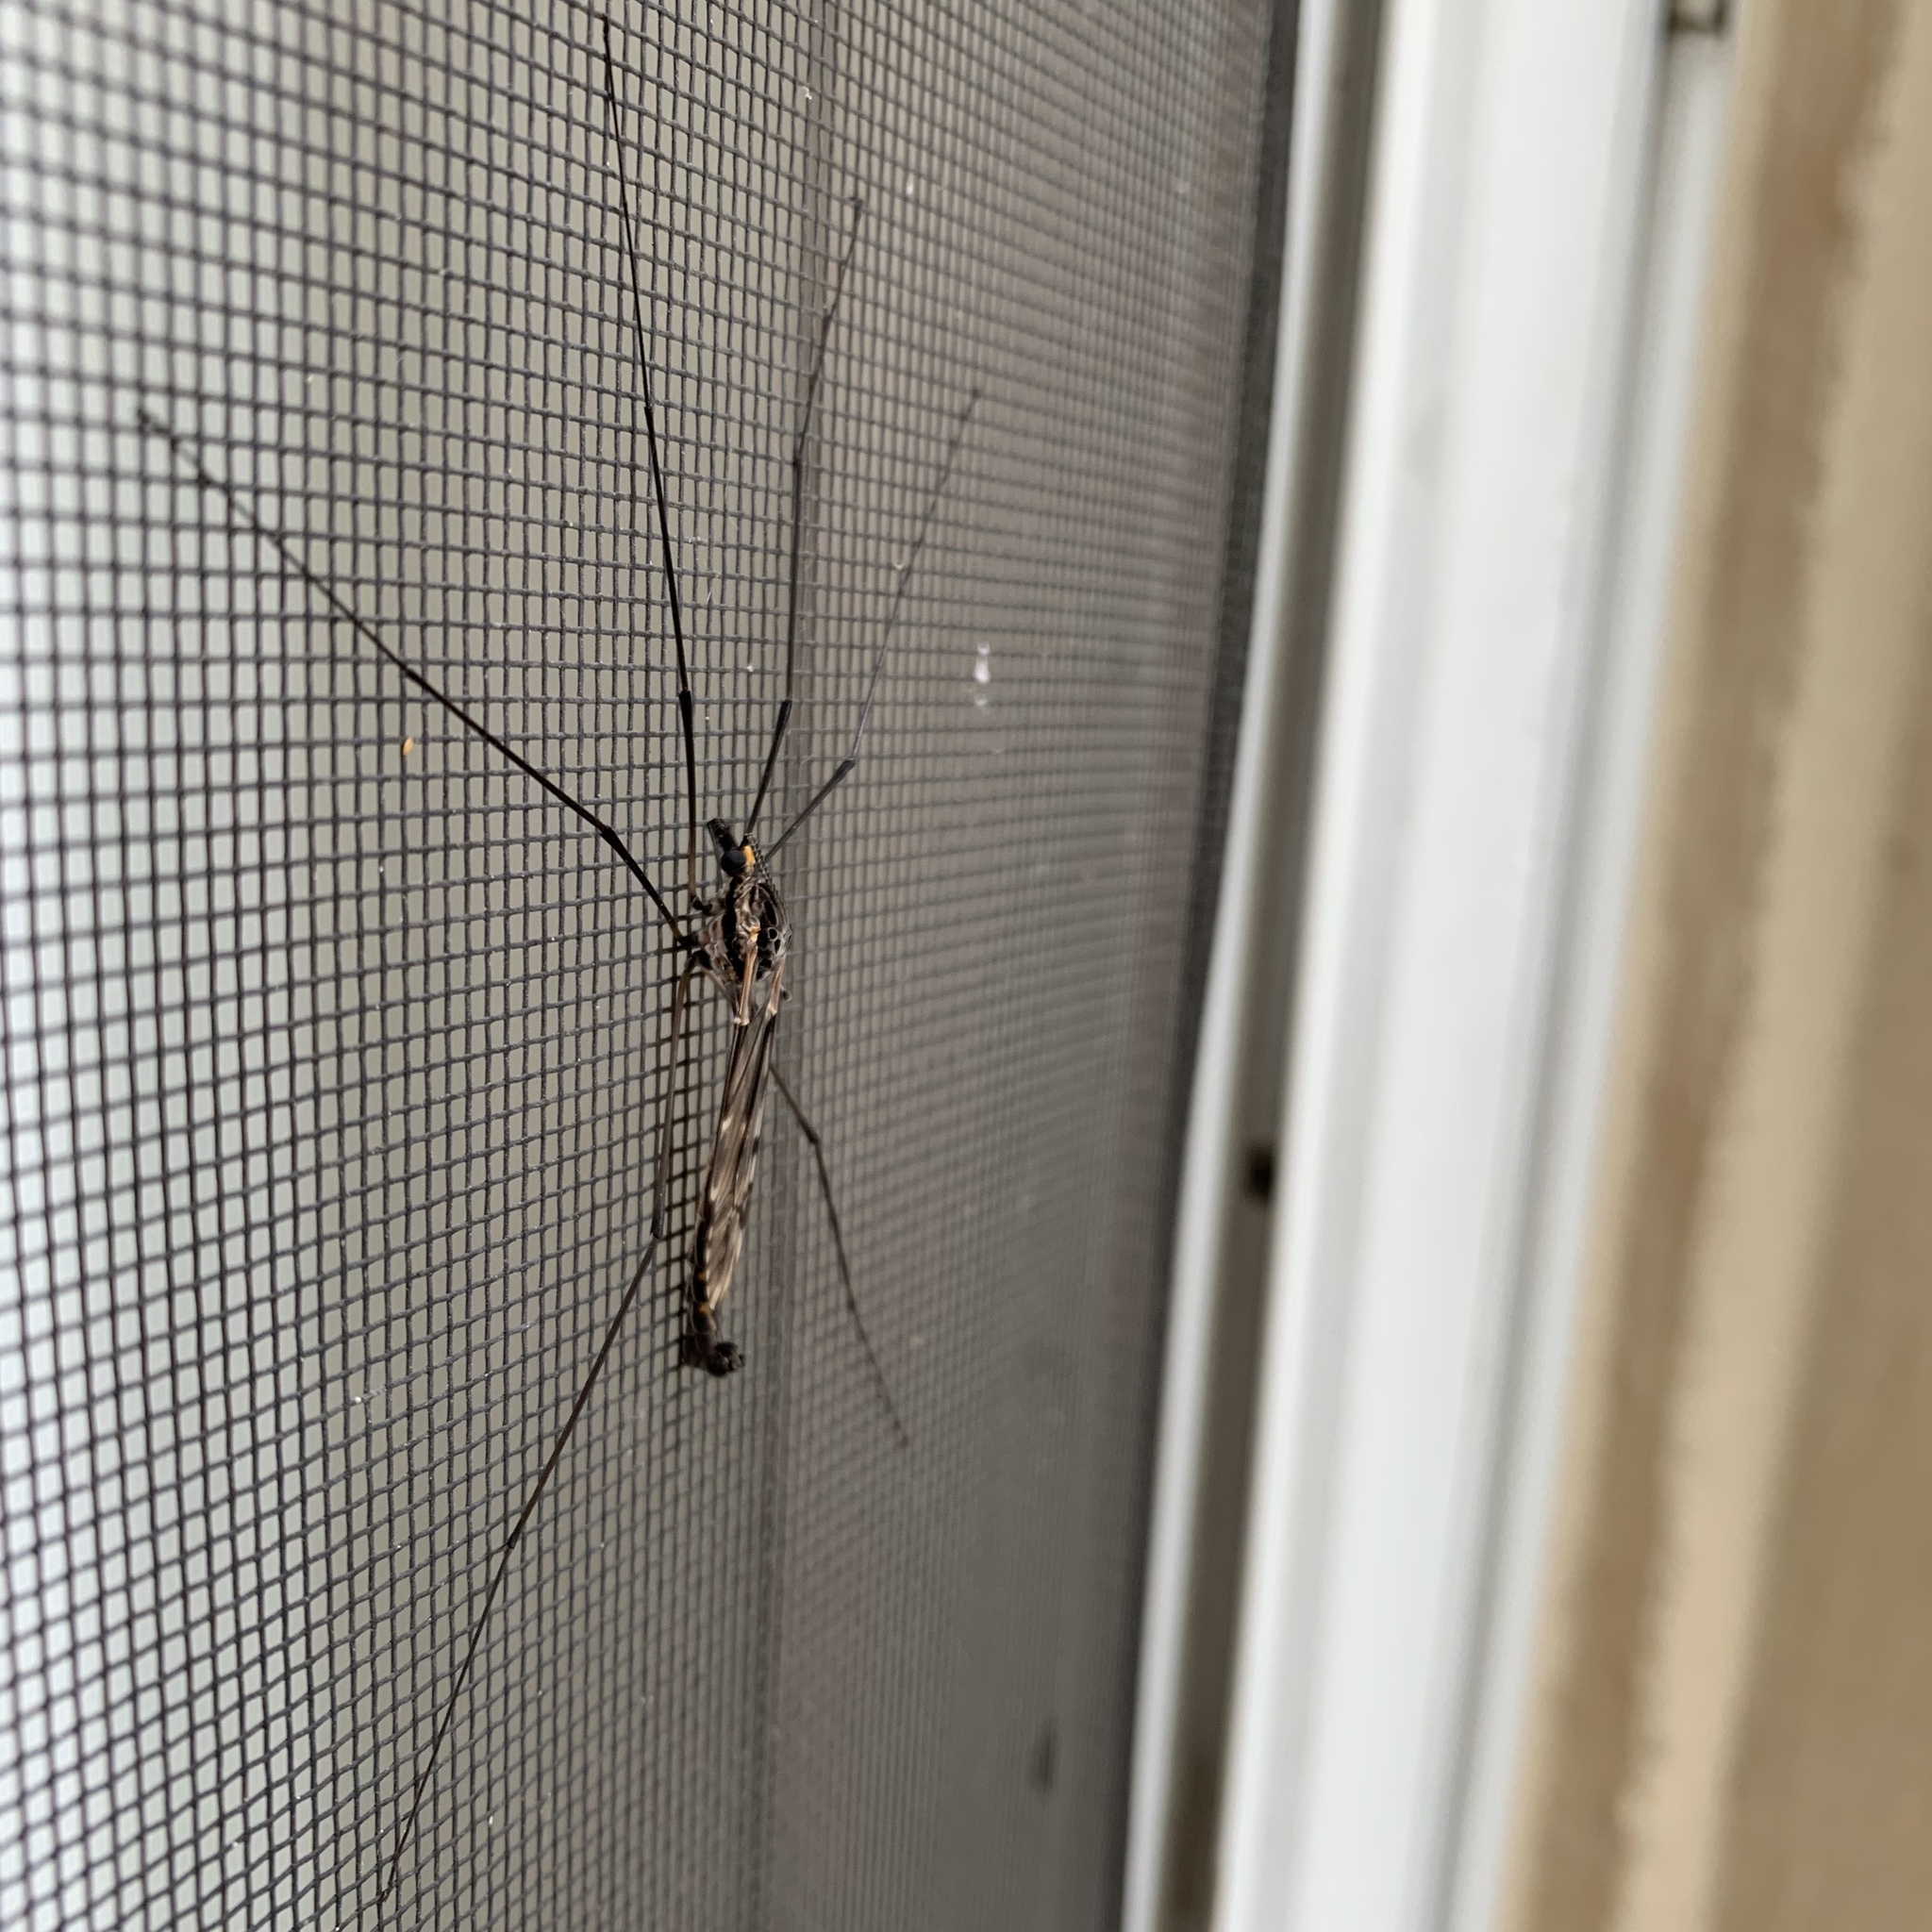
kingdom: Animalia
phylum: Arthropoda
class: Insecta
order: Diptera
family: Tipulidae
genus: Tipula
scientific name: Tipula metacomet
